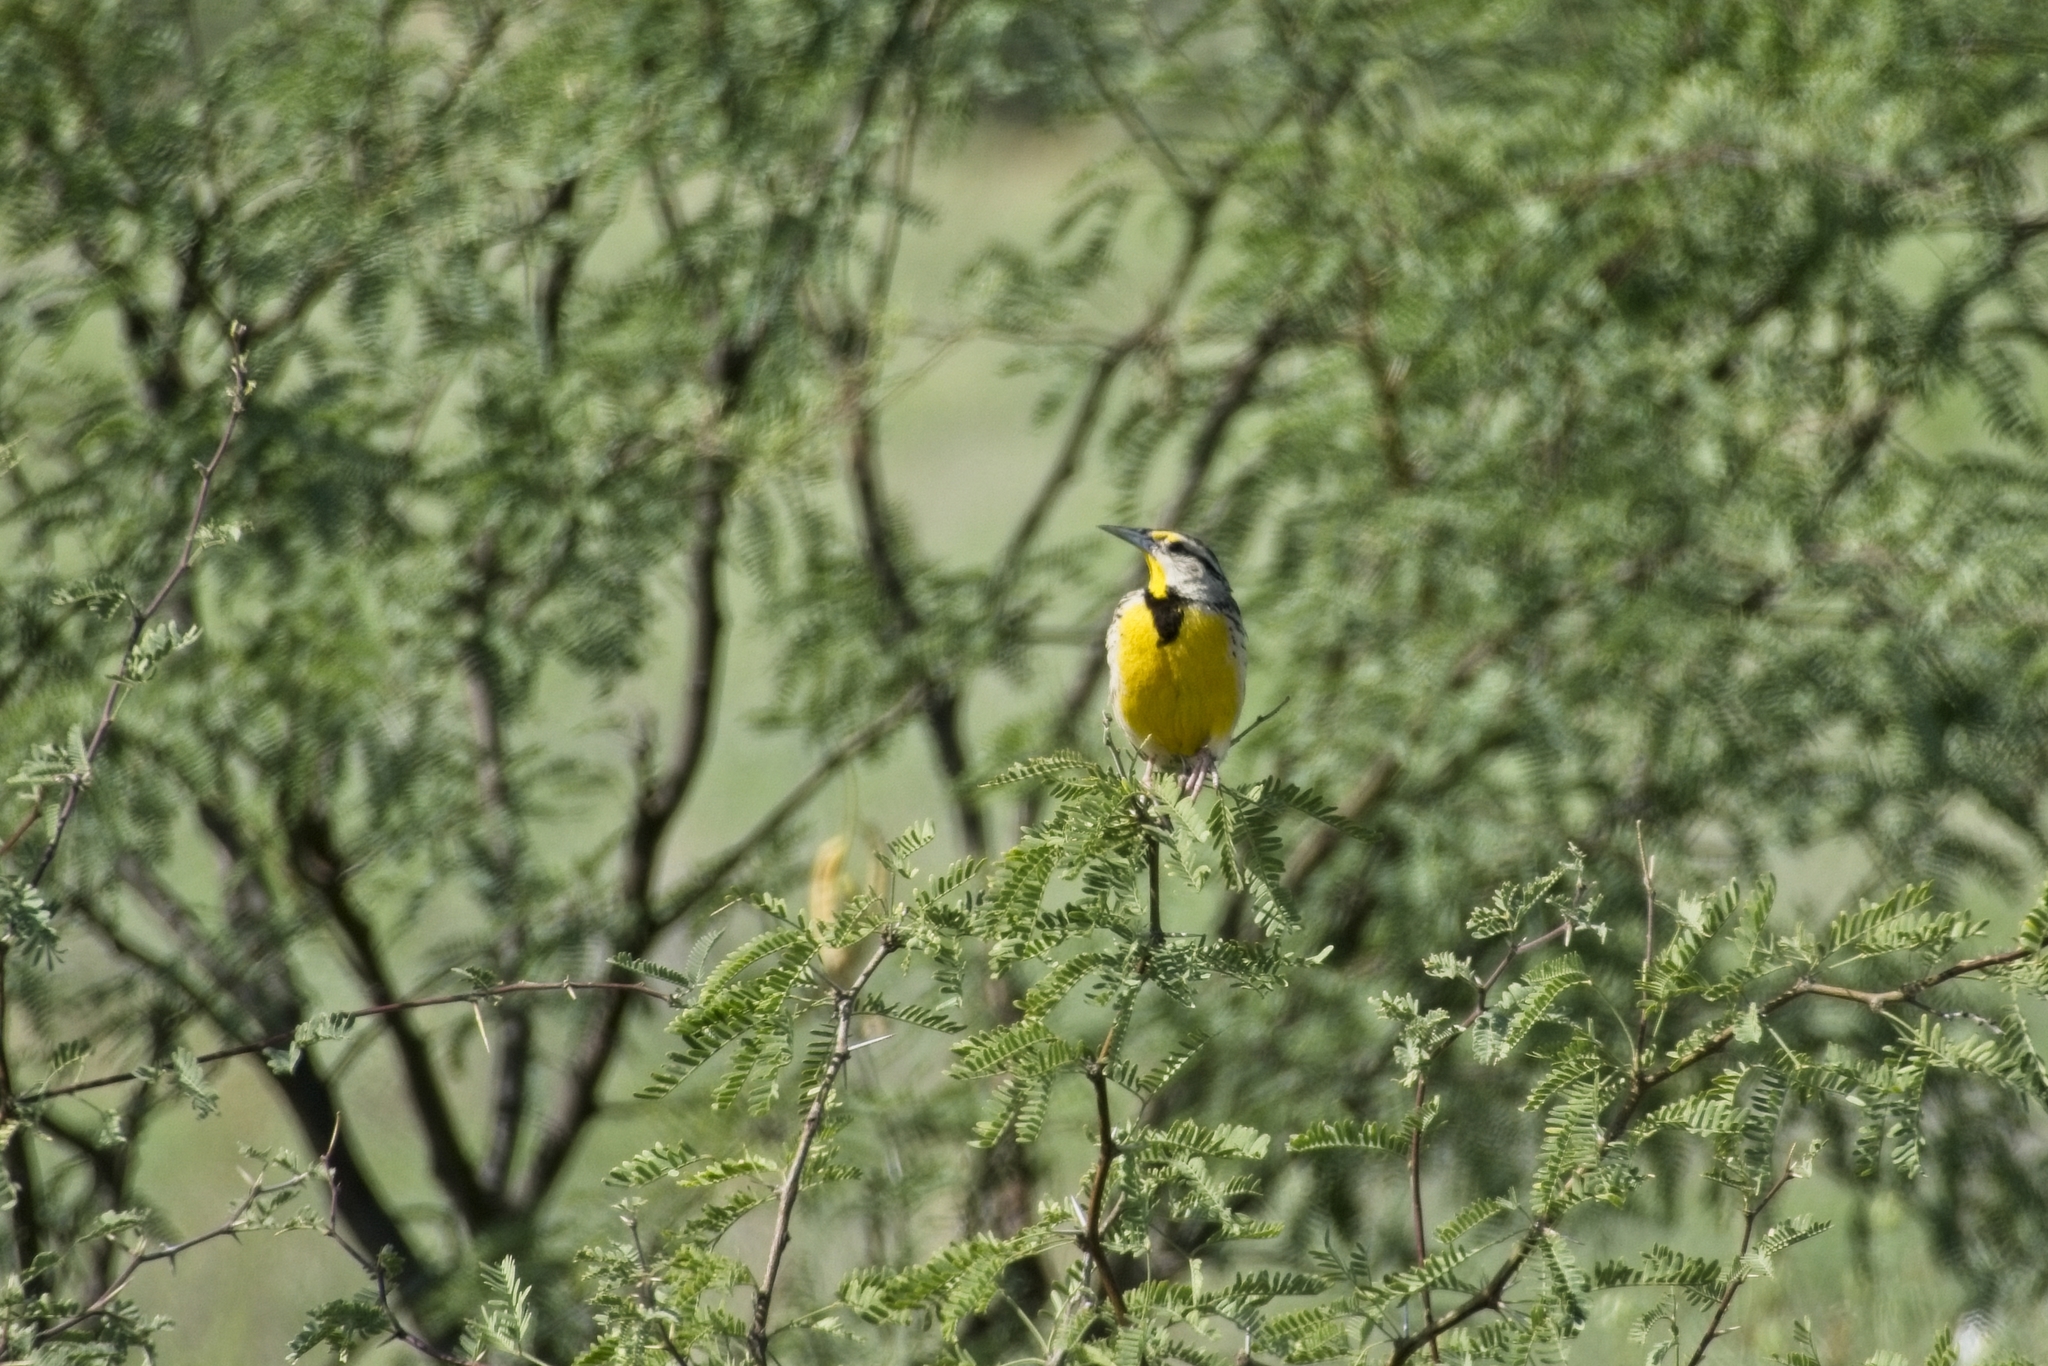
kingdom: Animalia
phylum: Chordata
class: Aves
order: Passeriformes
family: Icteridae
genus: Sturnella
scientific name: Sturnella lilianae
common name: Lilian's meadowlark
